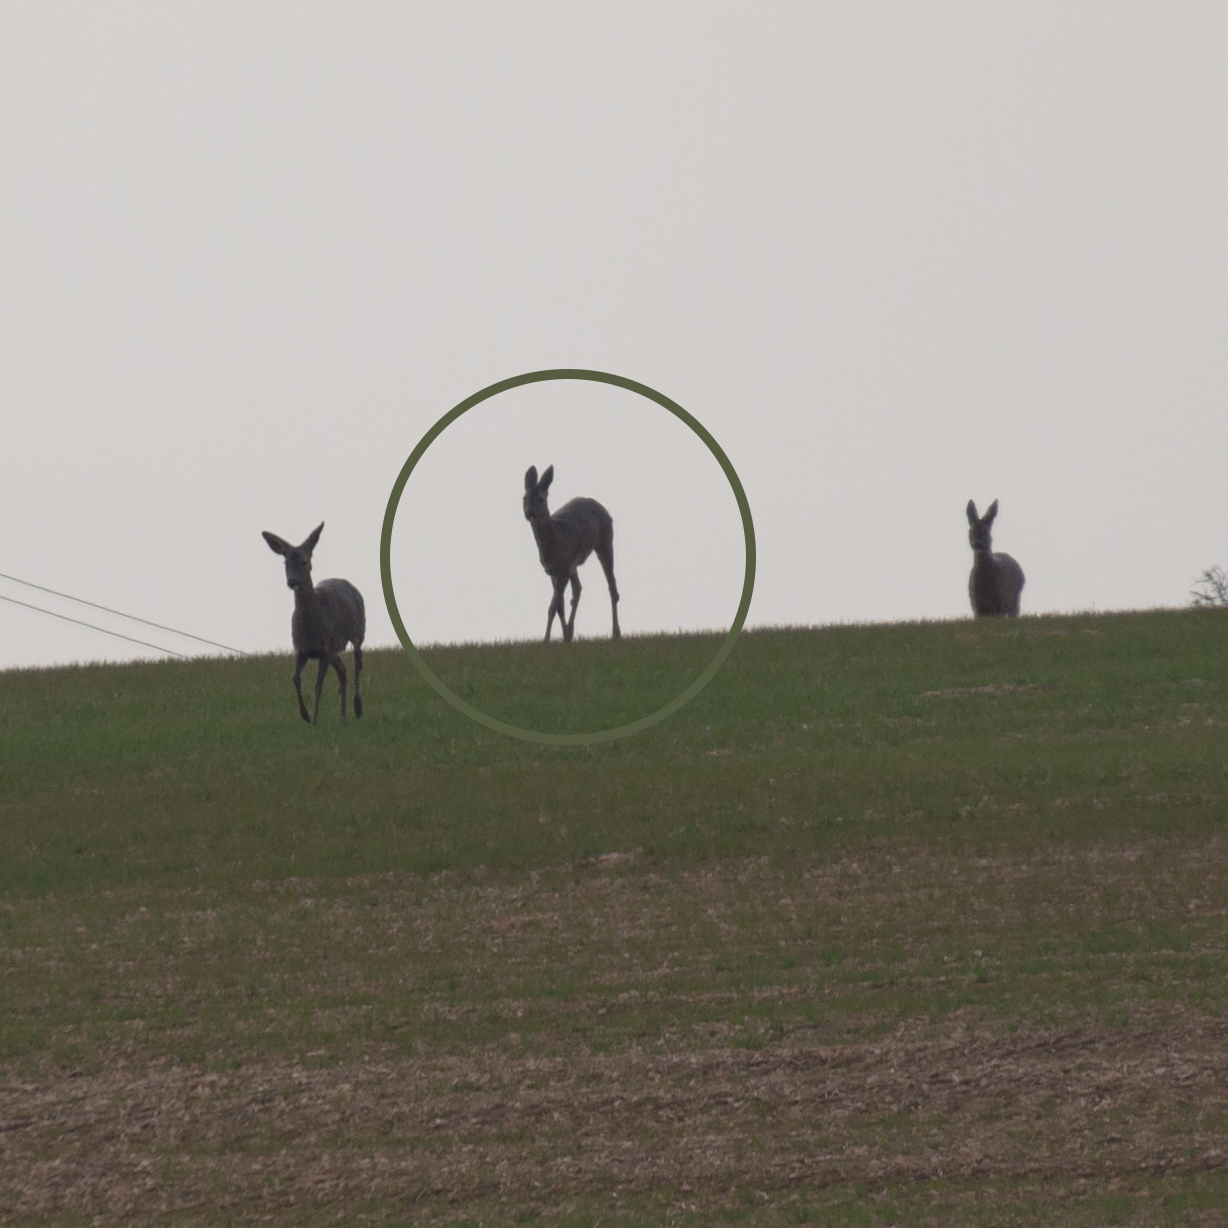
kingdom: Animalia
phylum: Chordata
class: Mammalia
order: Artiodactyla
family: Cervidae
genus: Capreolus
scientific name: Capreolus capreolus
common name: Western roe deer
